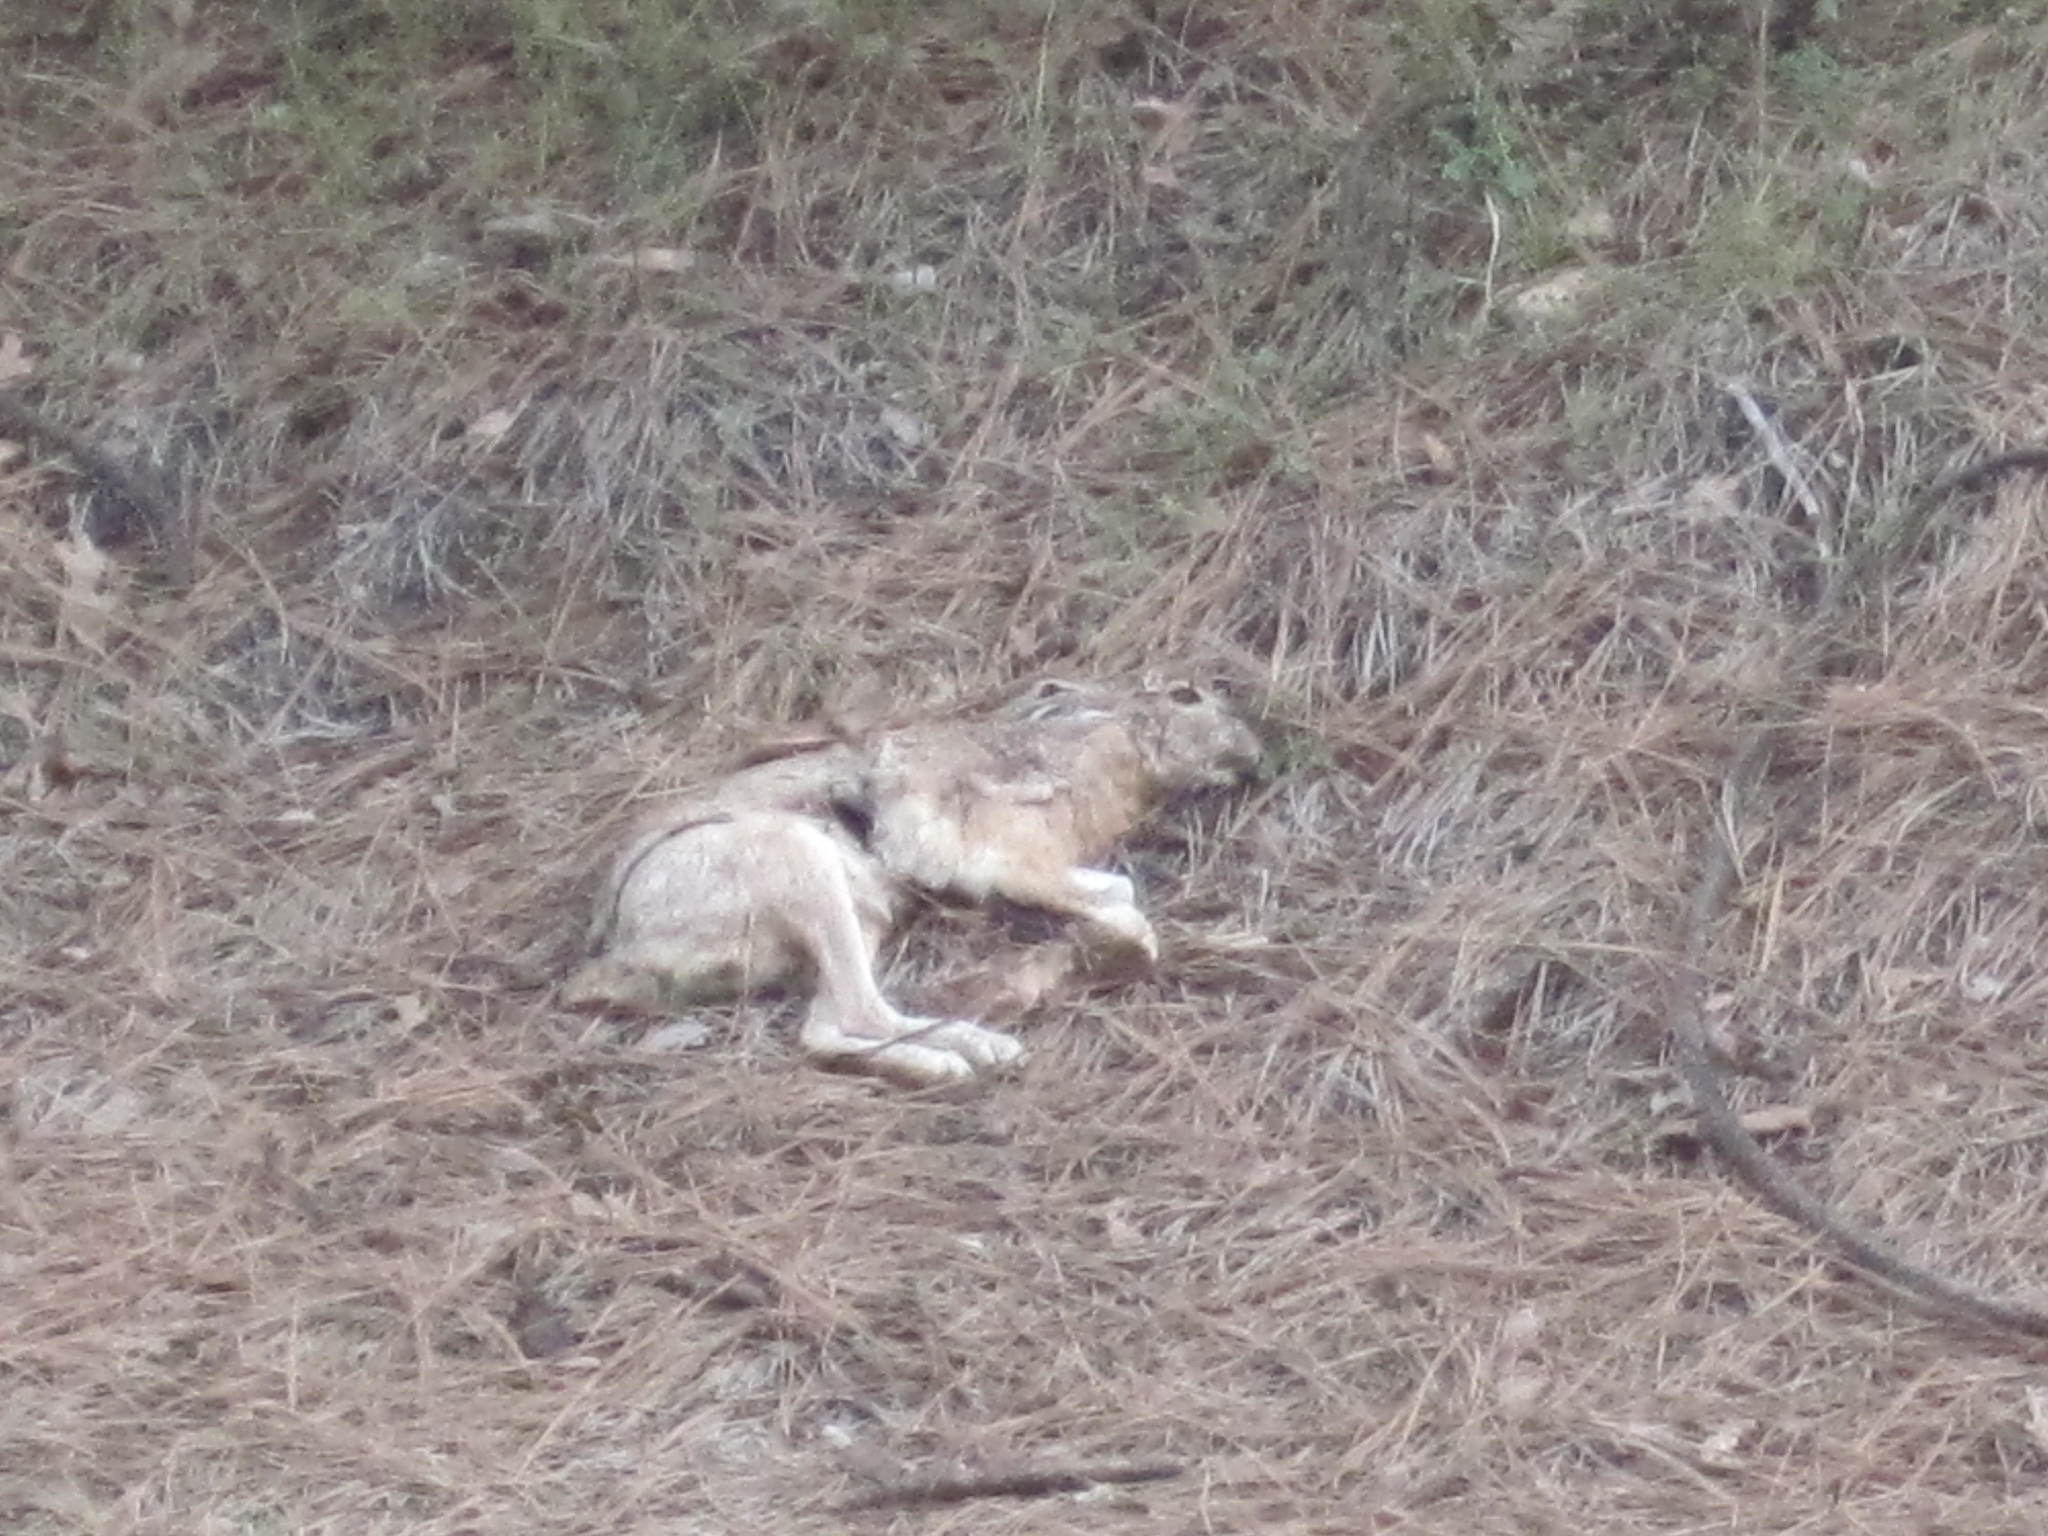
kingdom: Animalia
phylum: Chordata
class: Mammalia
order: Lagomorpha
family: Leporidae
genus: Lepus
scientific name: Lepus californicus
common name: Black-tailed jackrabbit
